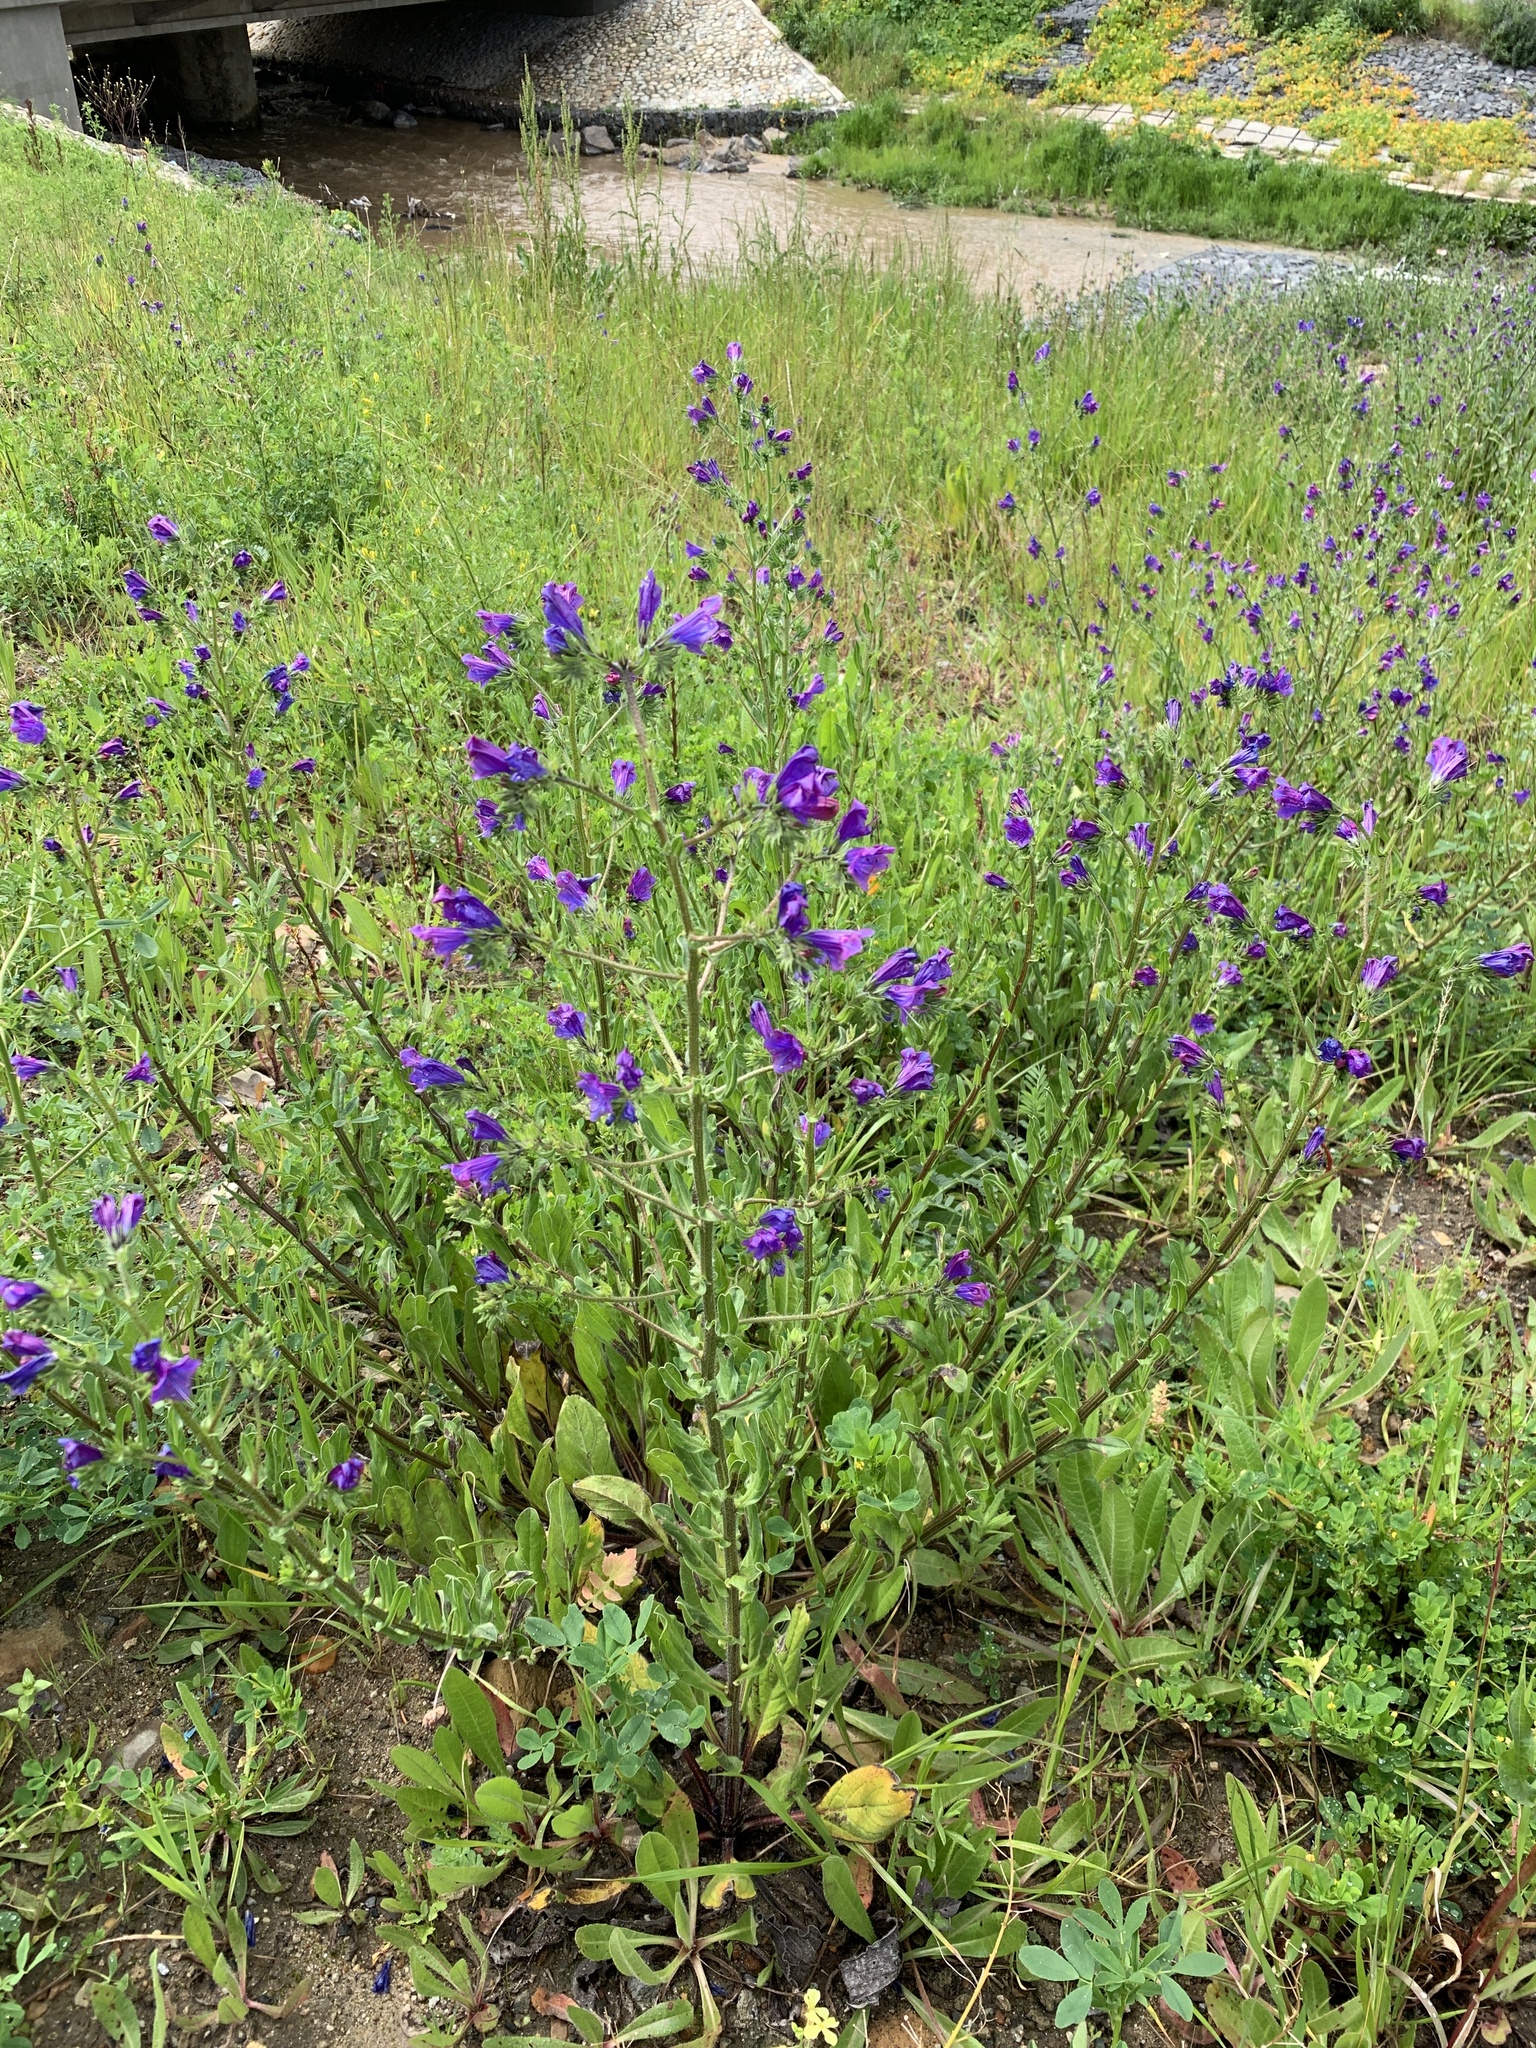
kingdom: Plantae
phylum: Tracheophyta
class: Magnoliopsida
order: Boraginales
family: Boraginaceae
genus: Echium
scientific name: Echium plantagineum
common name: Purple viper's-bugloss
